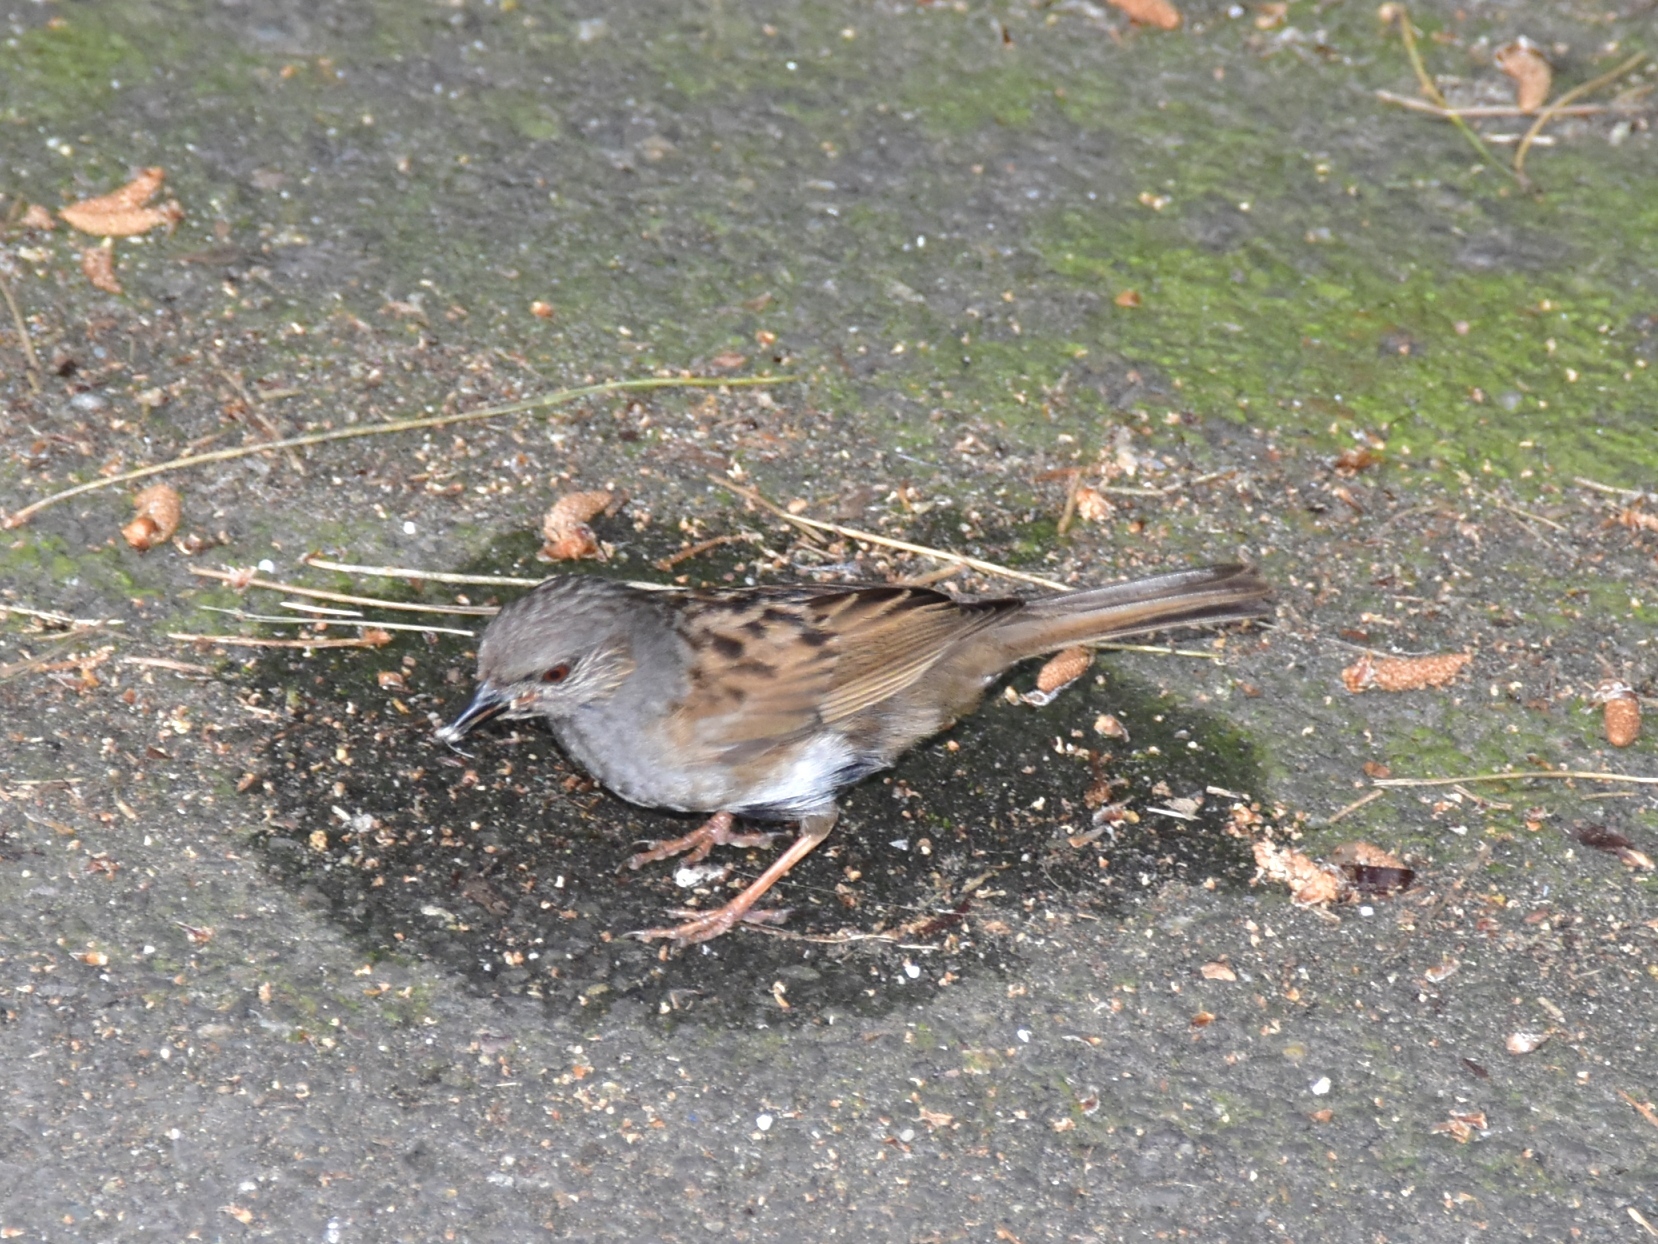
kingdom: Animalia
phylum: Chordata
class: Aves
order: Passeriformes
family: Prunellidae
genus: Prunella
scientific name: Prunella modularis
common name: Dunnock
